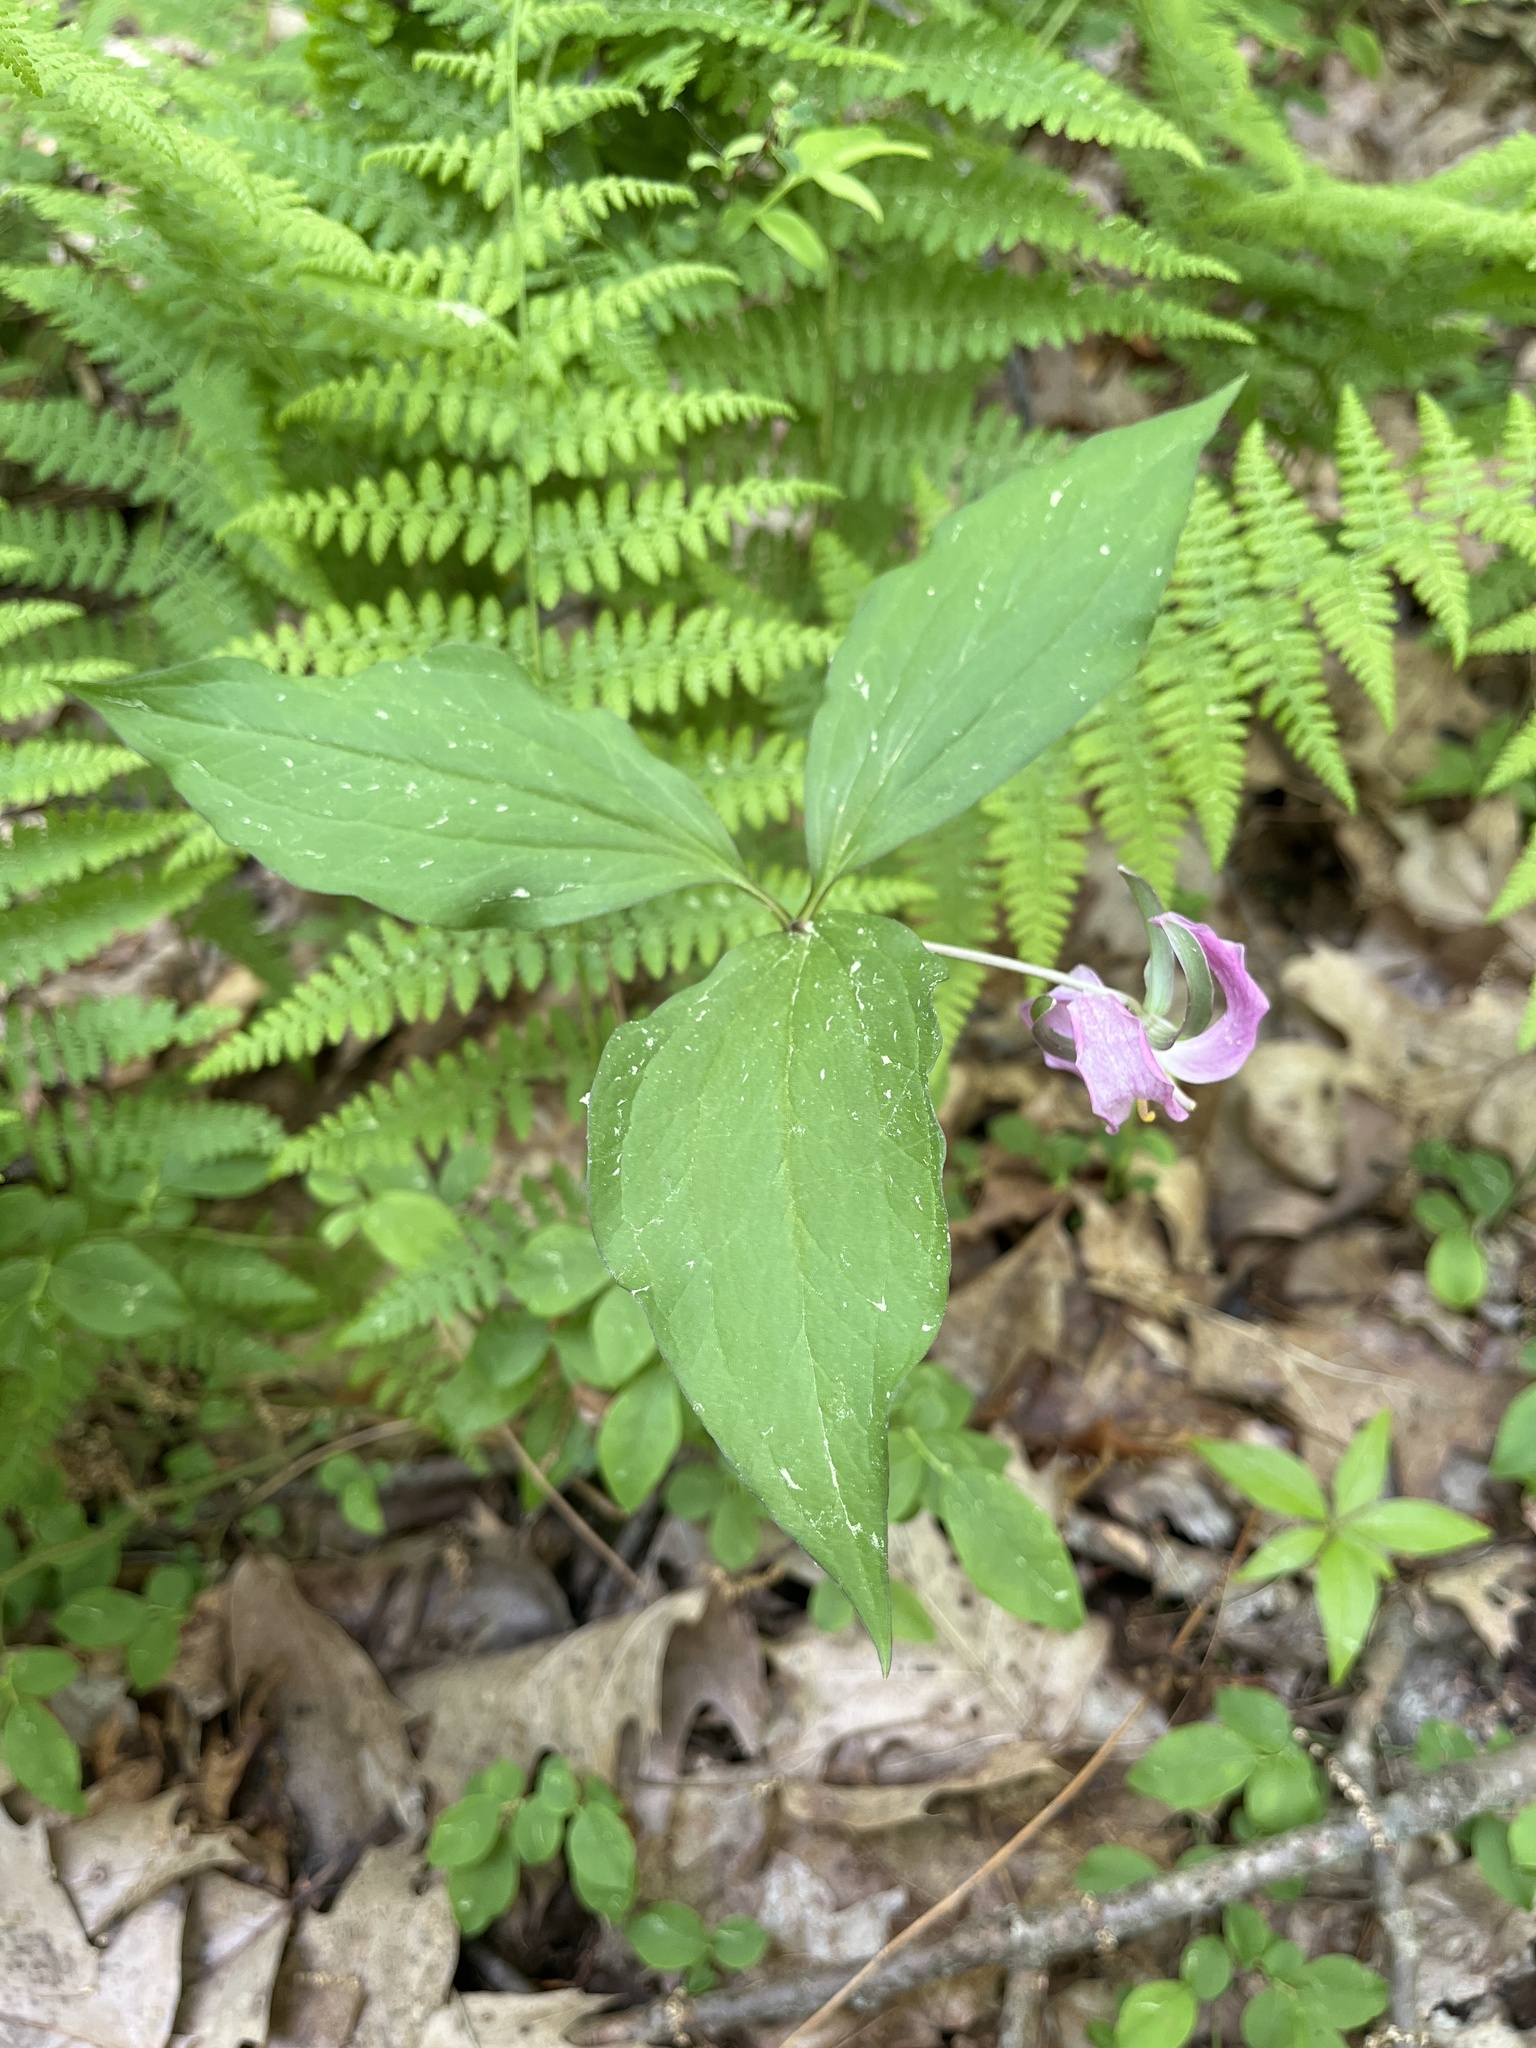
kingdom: Plantae
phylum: Tracheophyta
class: Liliopsida
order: Liliales
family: Melanthiaceae
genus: Trillium
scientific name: Trillium cernuum
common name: Nodding trillium
